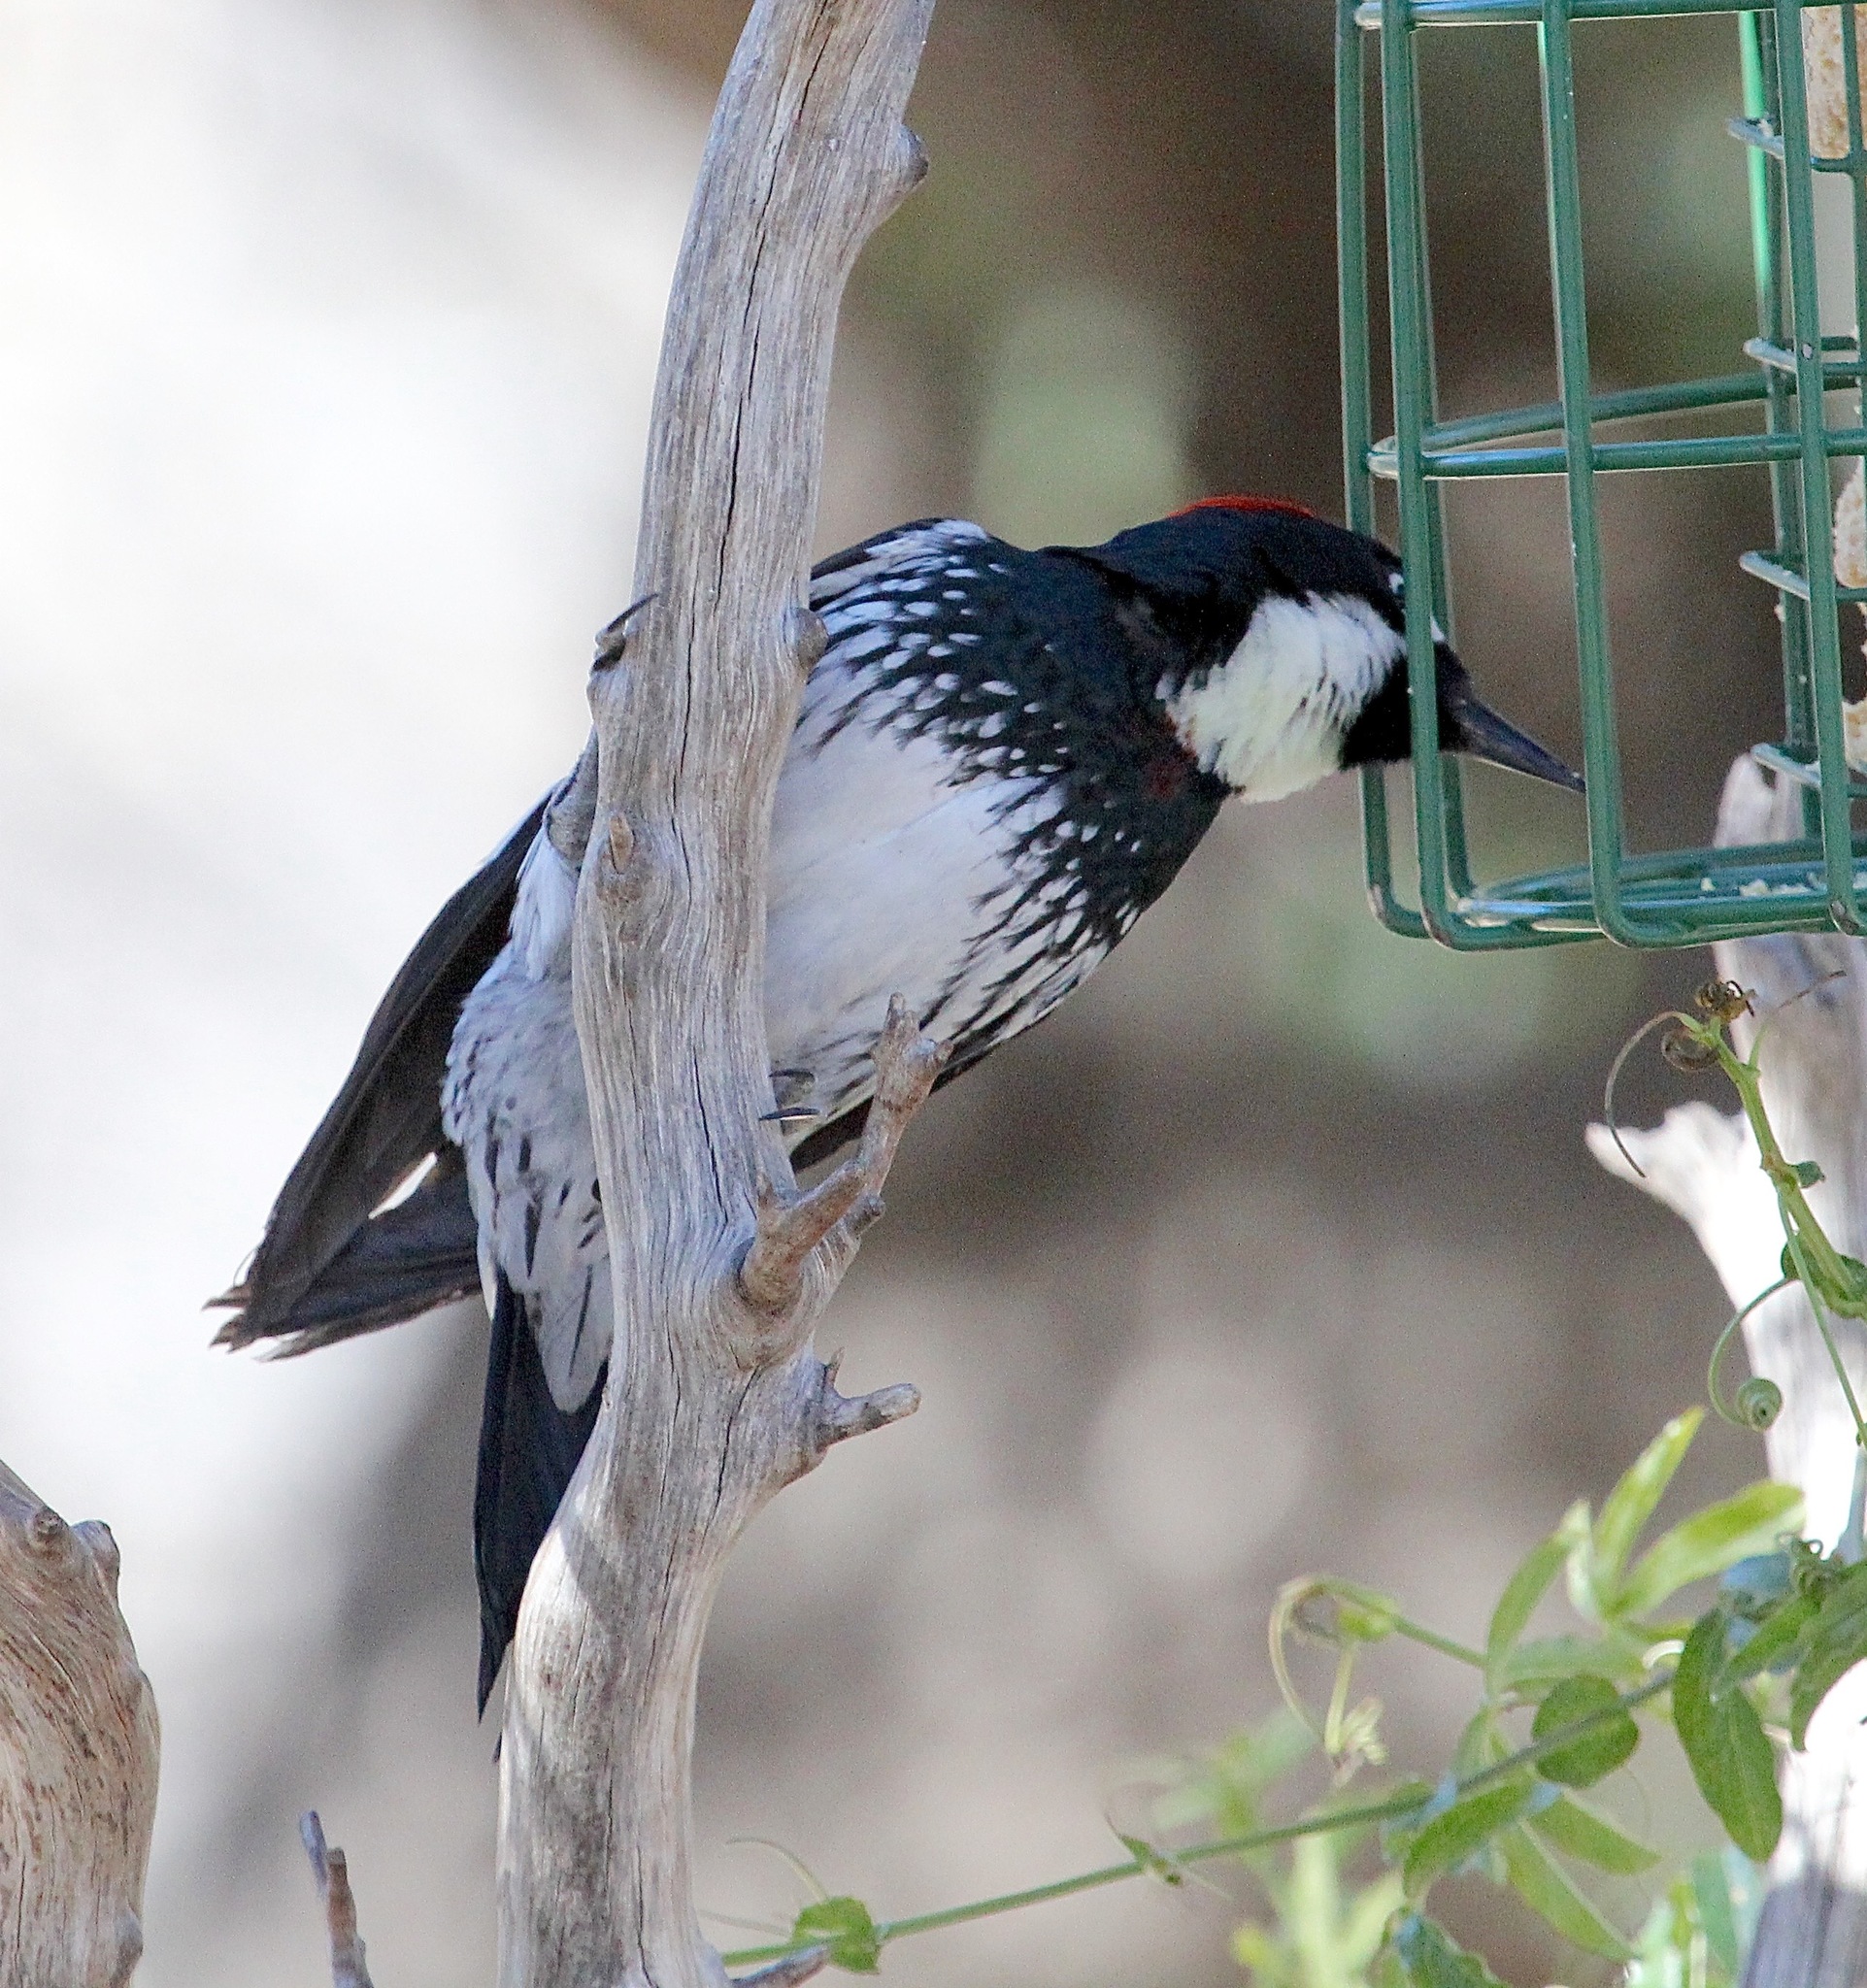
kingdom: Animalia
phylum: Chordata
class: Aves
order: Piciformes
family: Picidae
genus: Melanerpes
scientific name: Melanerpes formicivorus
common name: Acorn woodpecker
